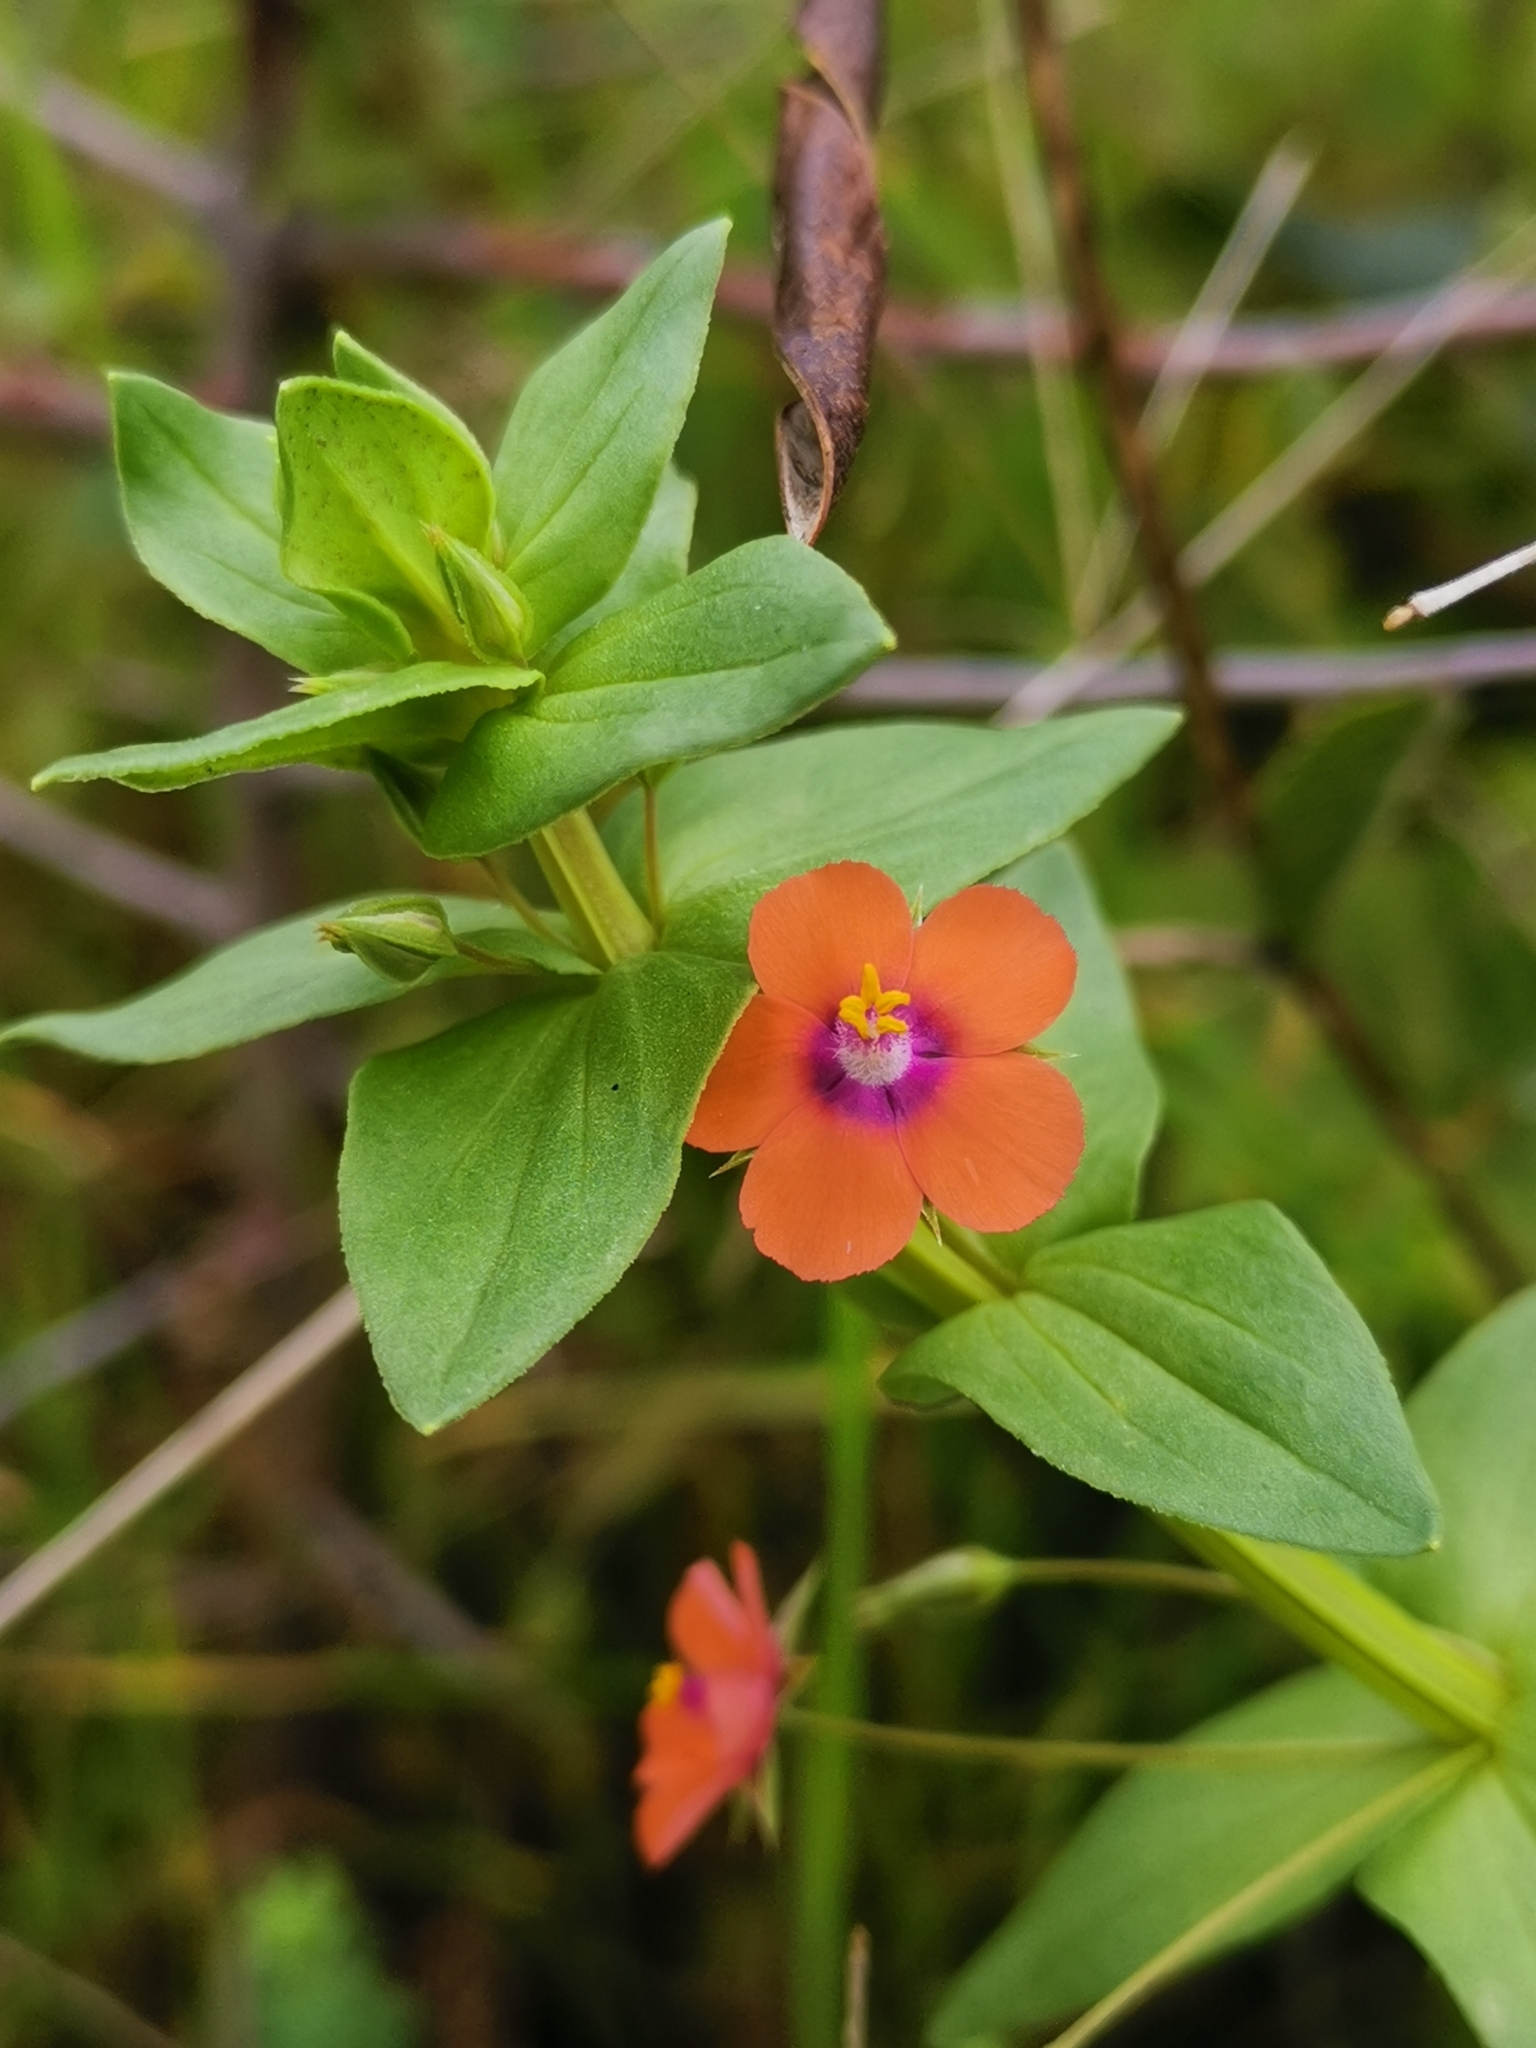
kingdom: Plantae
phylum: Tracheophyta
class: Magnoliopsida
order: Ericales
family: Primulaceae
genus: Lysimachia
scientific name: Lysimachia arvensis
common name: Scarlet pimpernel
